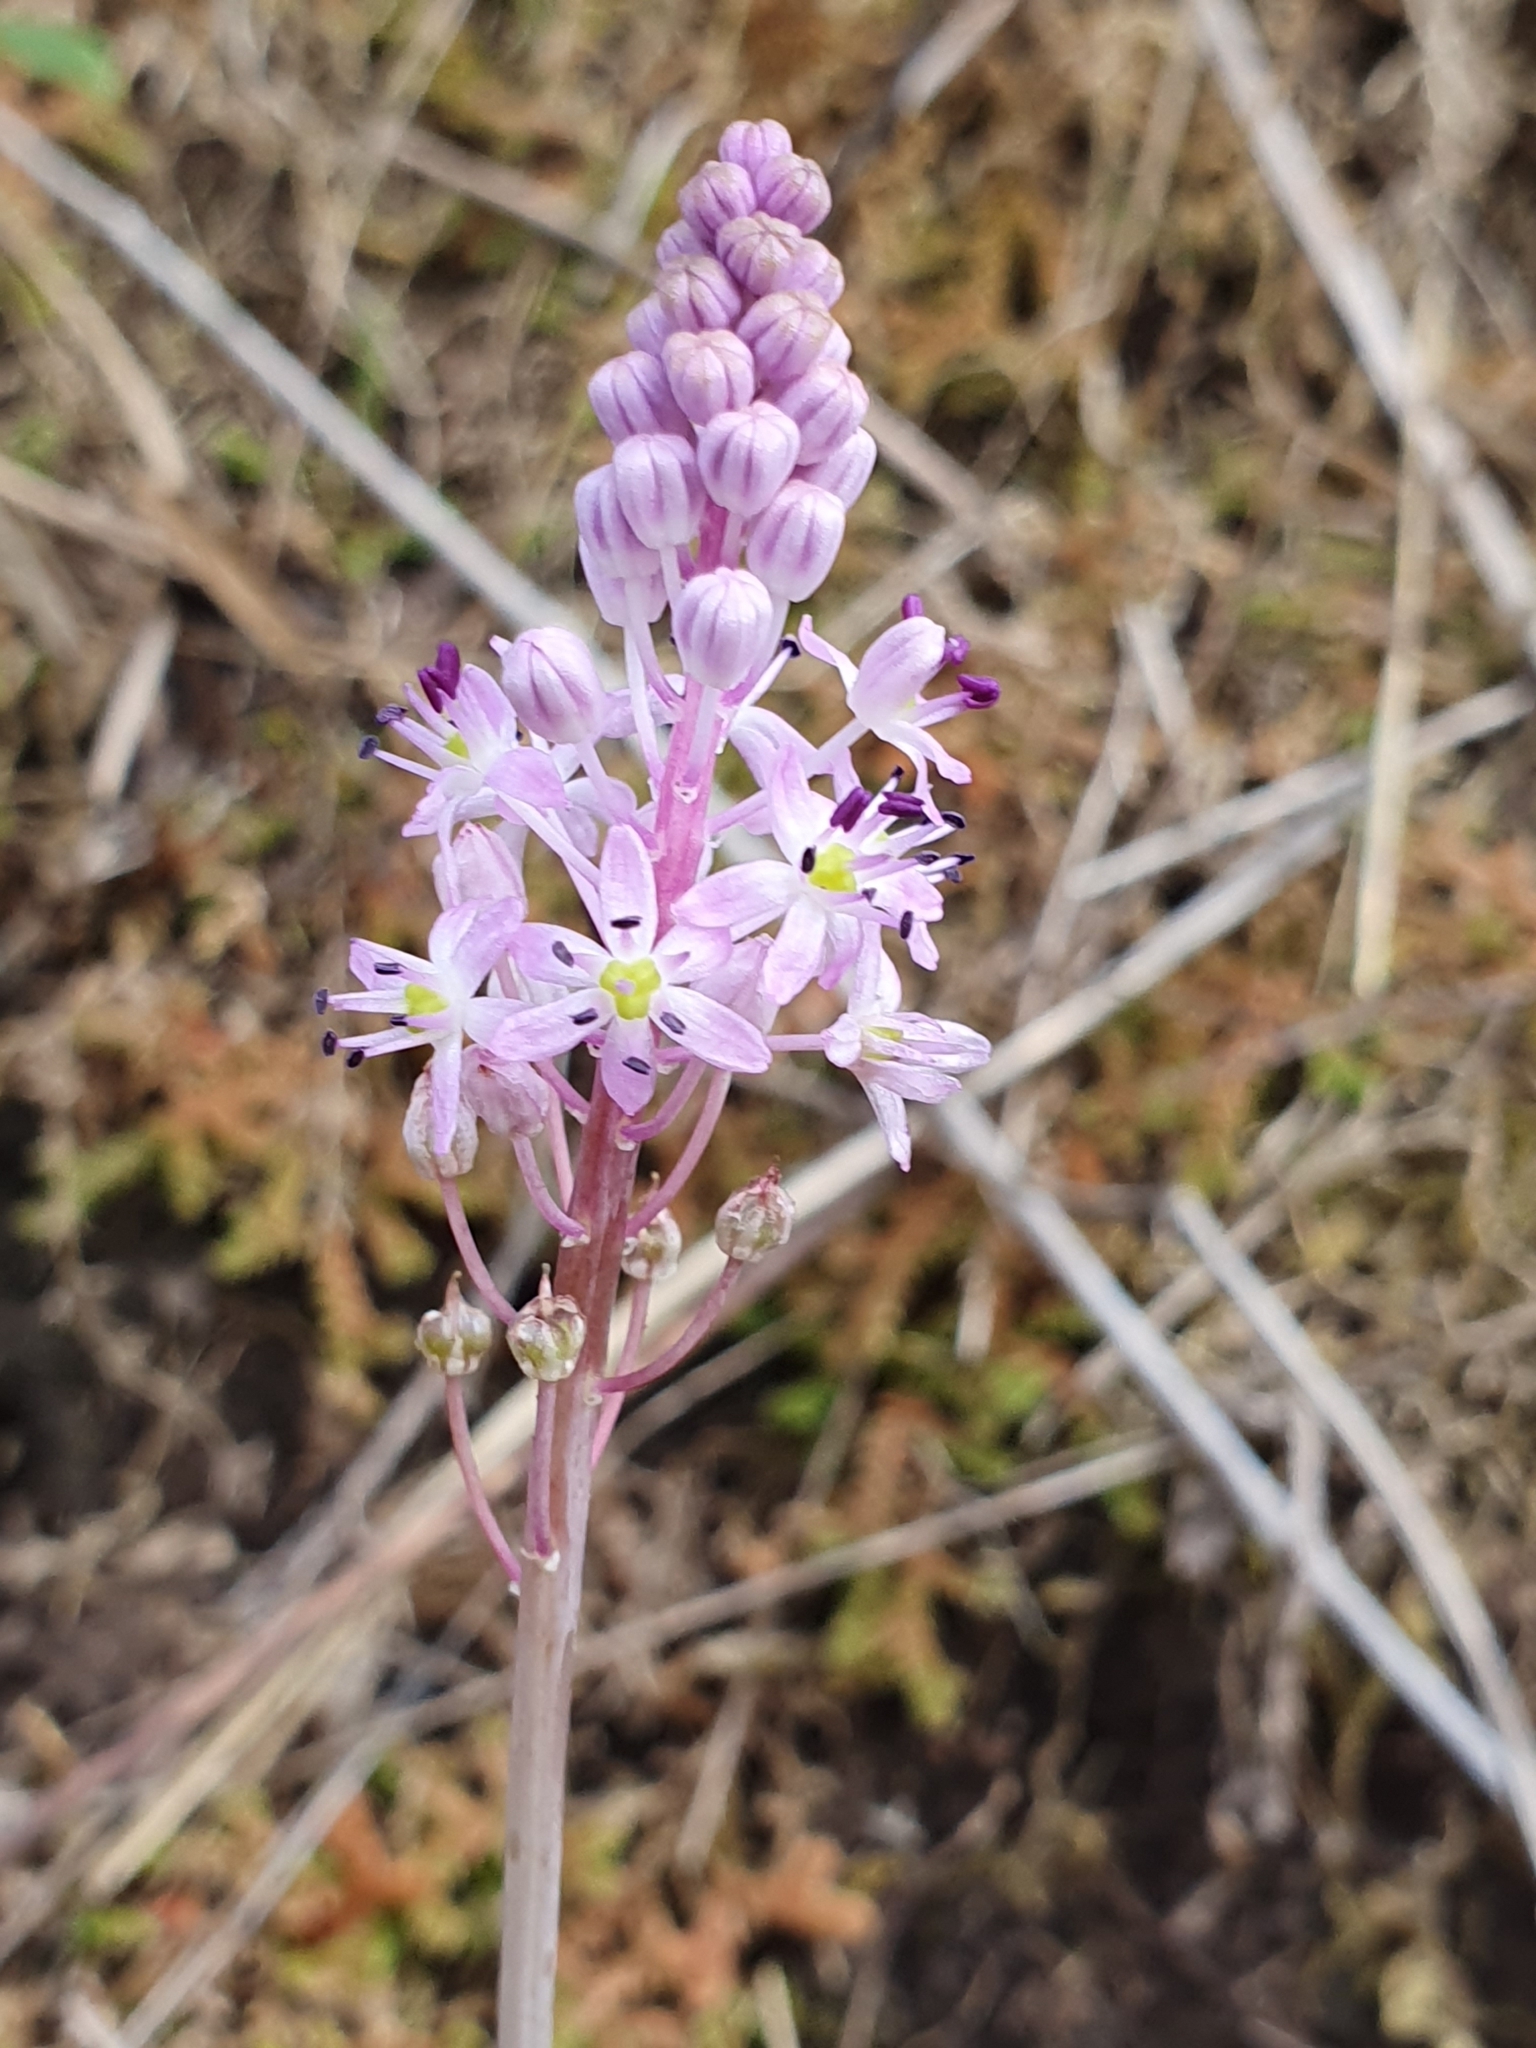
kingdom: Plantae
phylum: Tracheophyta
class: Liliopsida
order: Asparagales
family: Asparagaceae
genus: Barnardia
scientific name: Barnardia numidica
